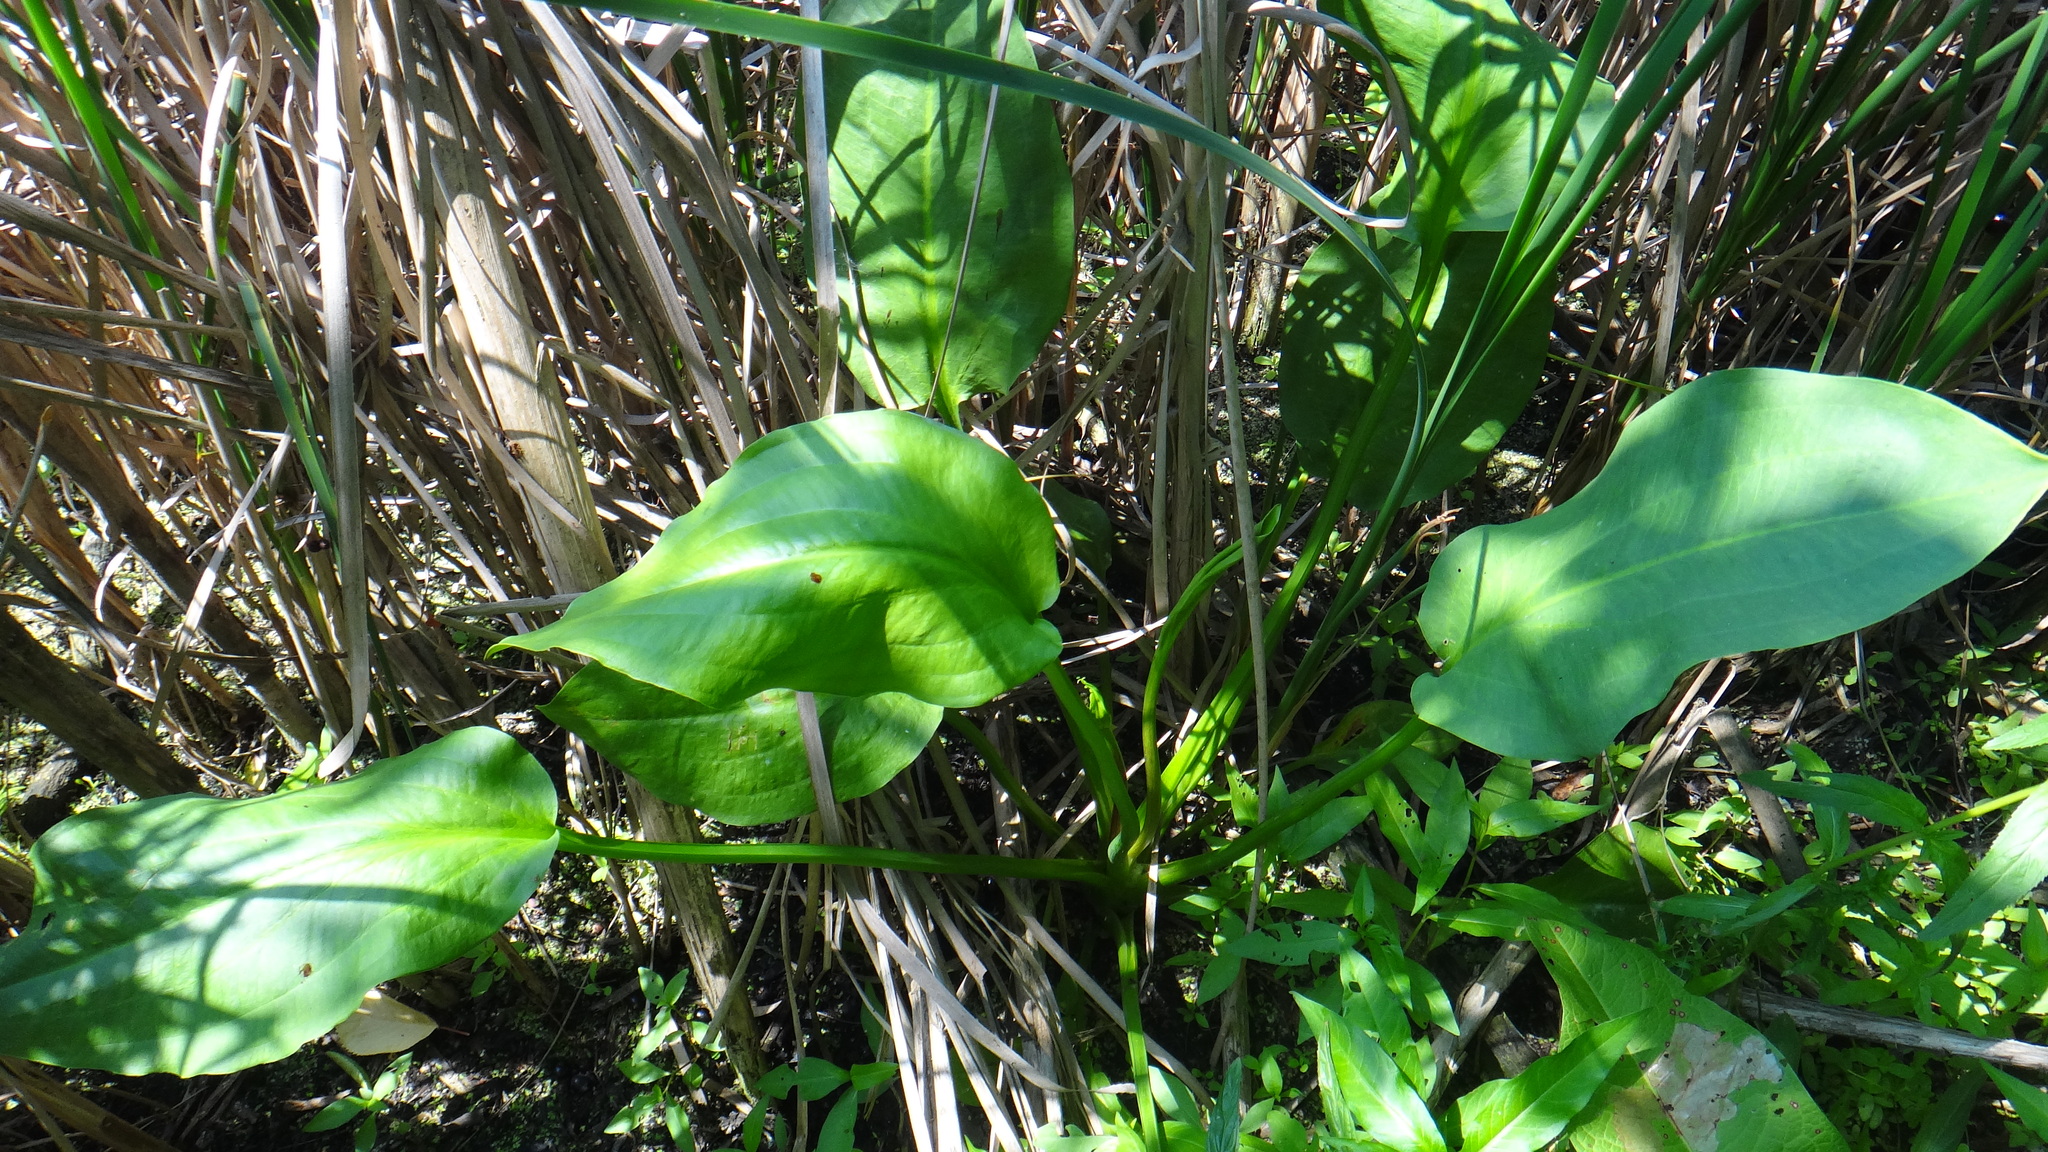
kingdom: Plantae
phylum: Tracheophyta
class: Liliopsida
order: Alismatales
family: Alismataceae
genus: Alisma
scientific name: Alisma plantago-aquatica
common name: Water-plantain
